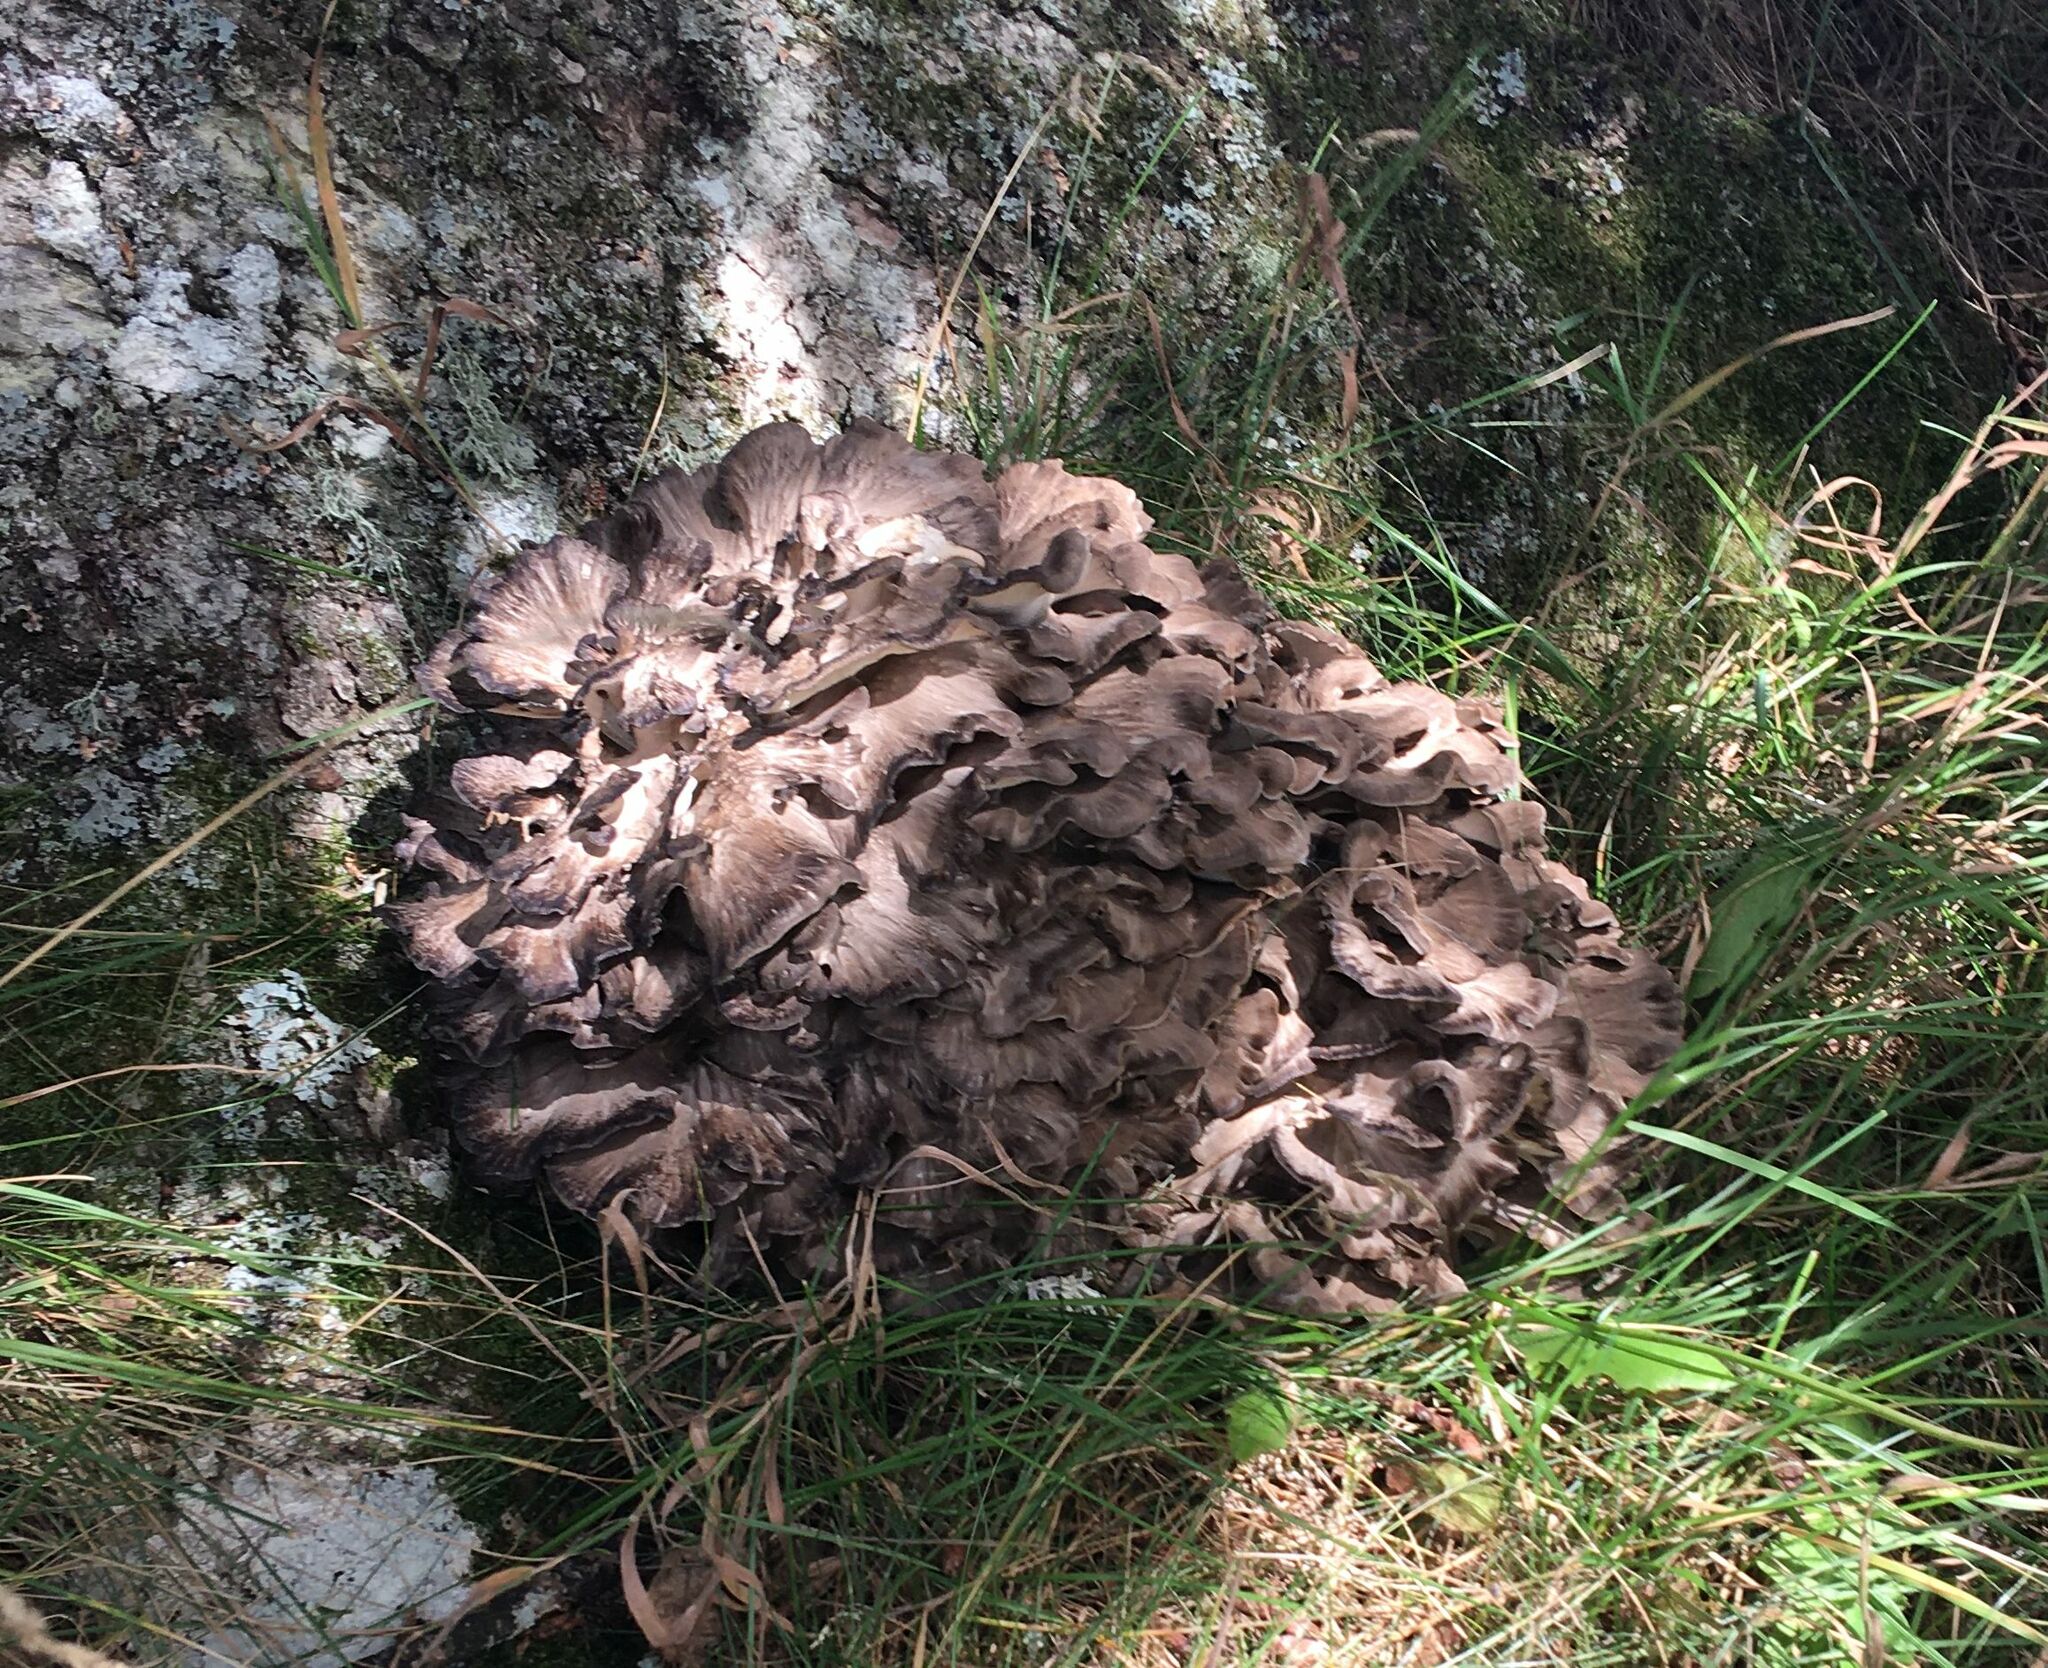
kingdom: Fungi
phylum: Basidiomycota
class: Agaricomycetes
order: Polyporales
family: Grifolaceae
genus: Grifola
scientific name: Grifola frondosa
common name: Hen of the woods
